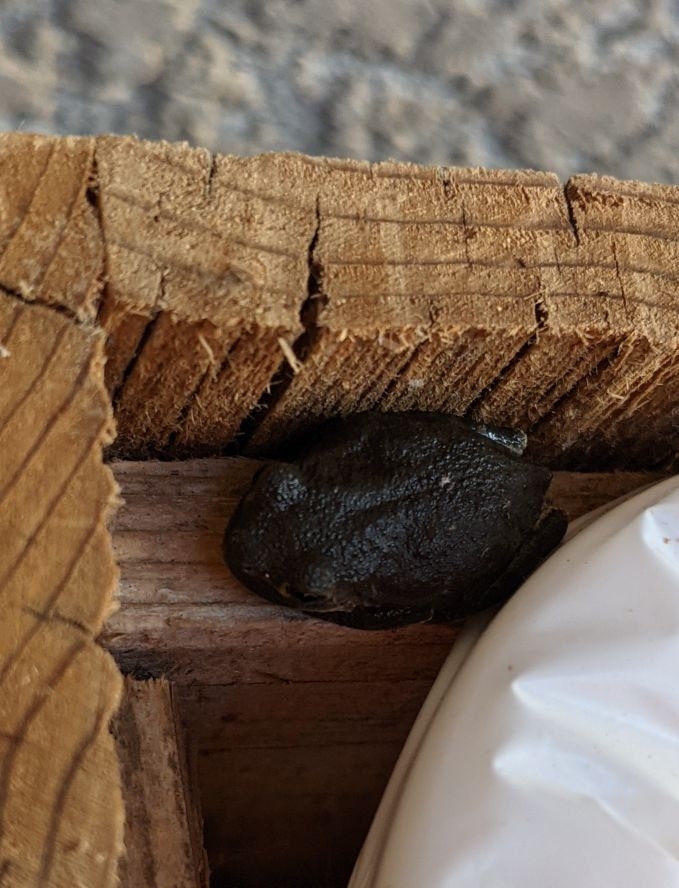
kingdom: Animalia
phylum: Chordata
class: Amphibia
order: Anura
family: Hylidae
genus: Hyla
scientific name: Hyla
